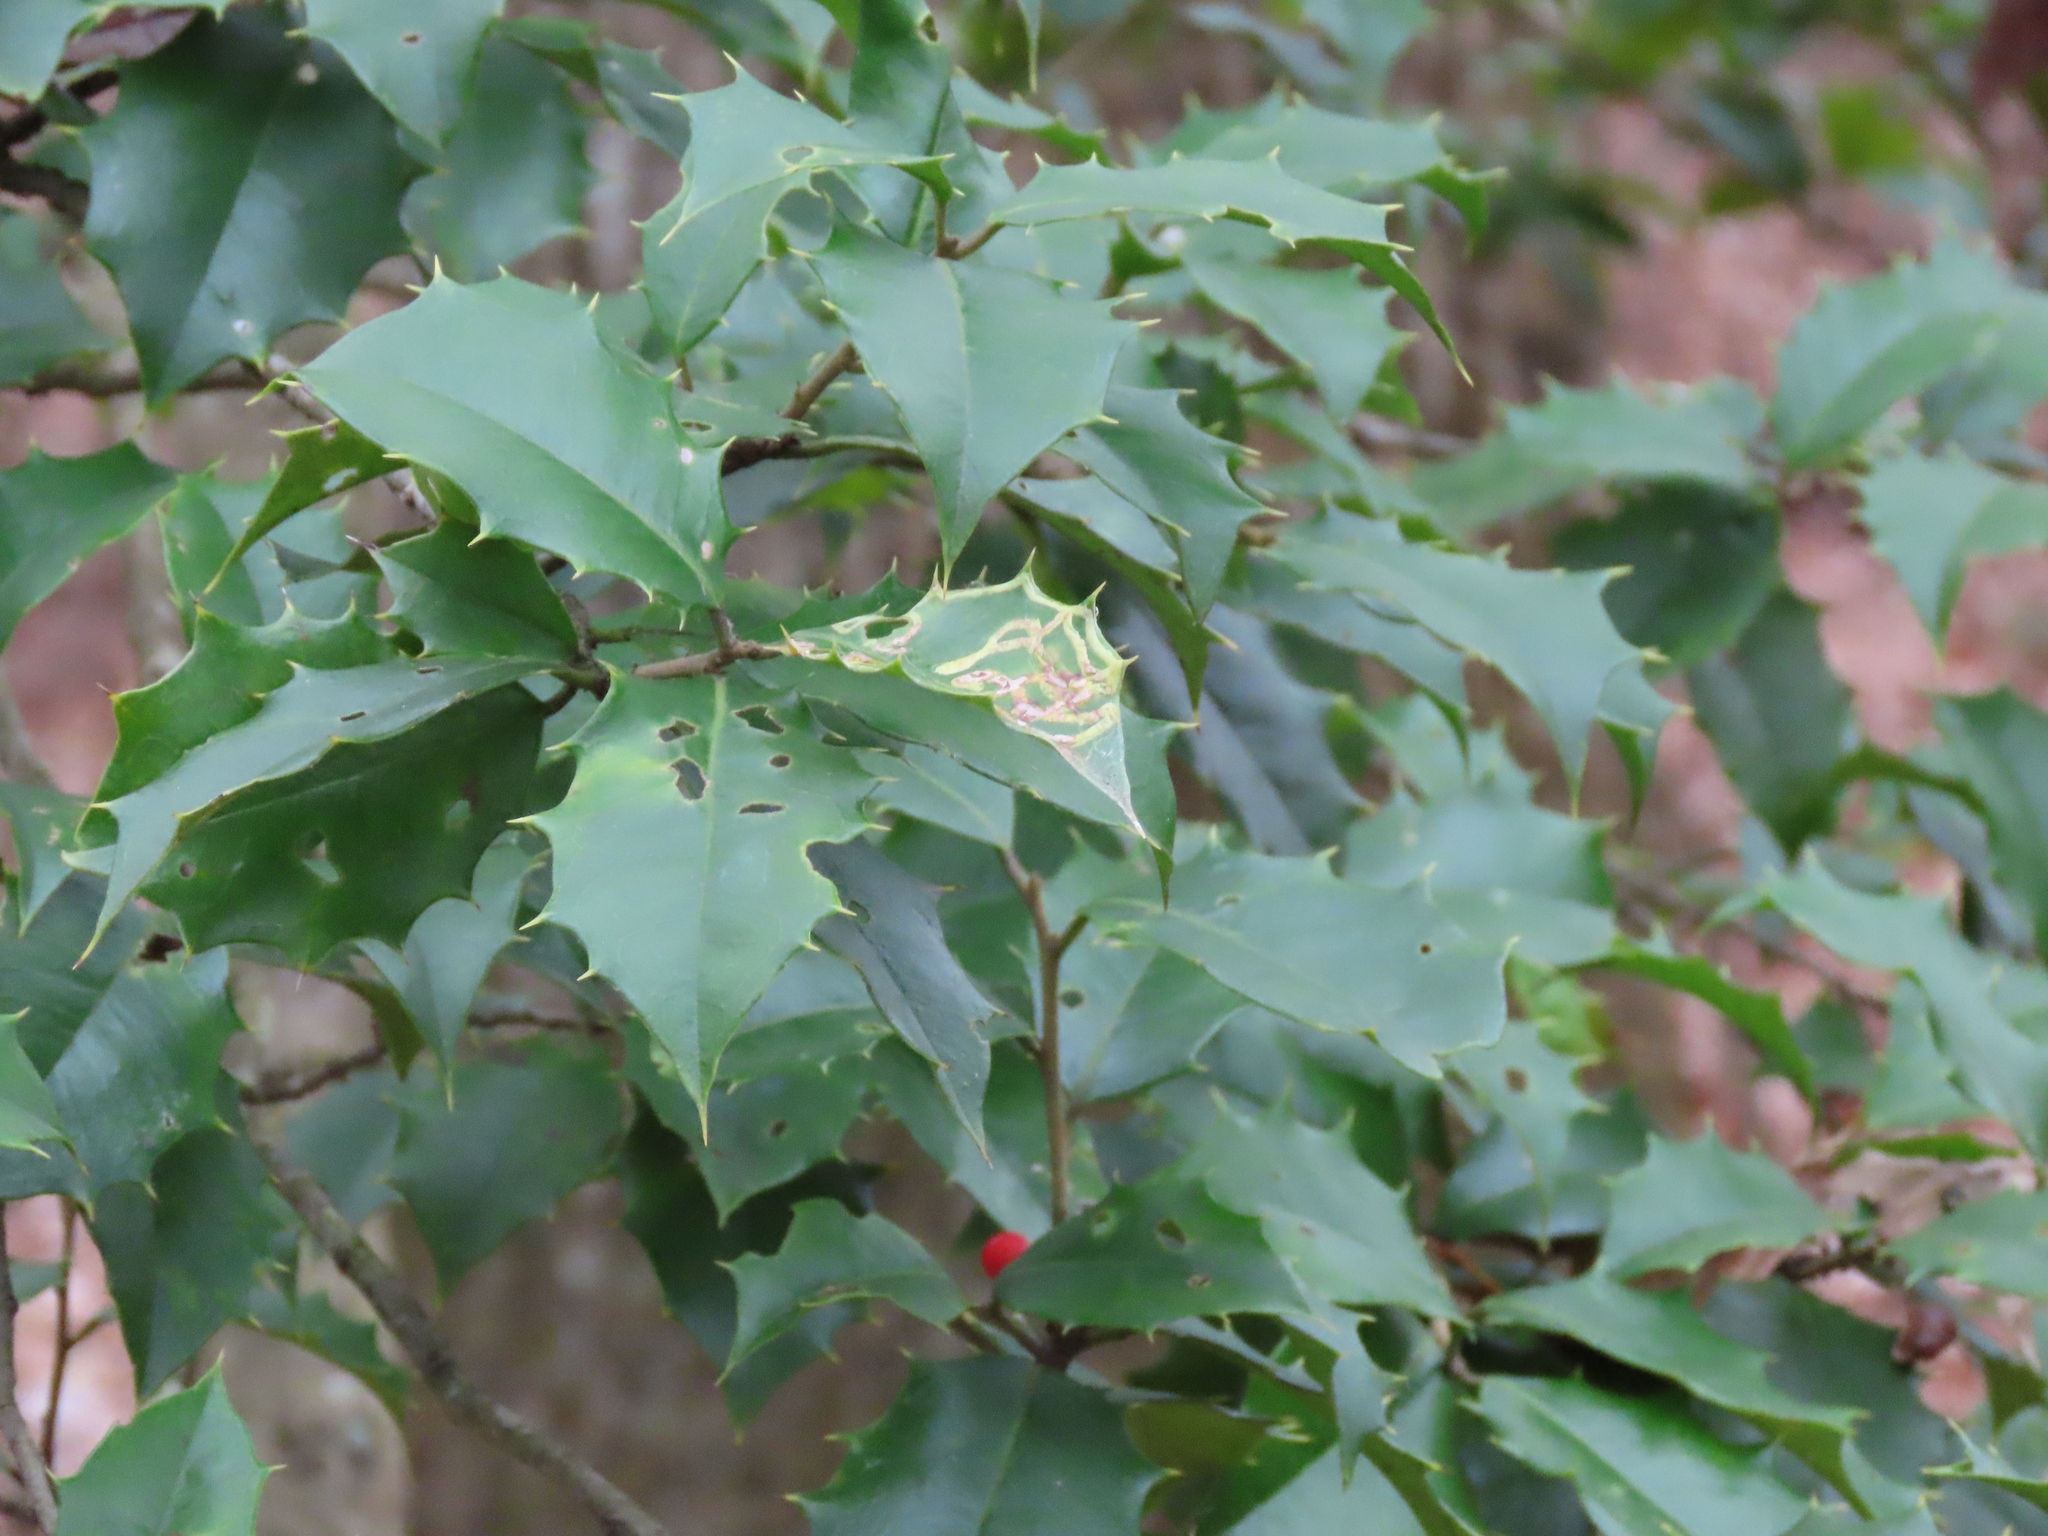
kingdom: Plantae
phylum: Tracheophyta
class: Magnoliopsida
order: Aquifoliales
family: Aquifoliaceae
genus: Ilex
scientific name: Ilex opaca
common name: American holly
